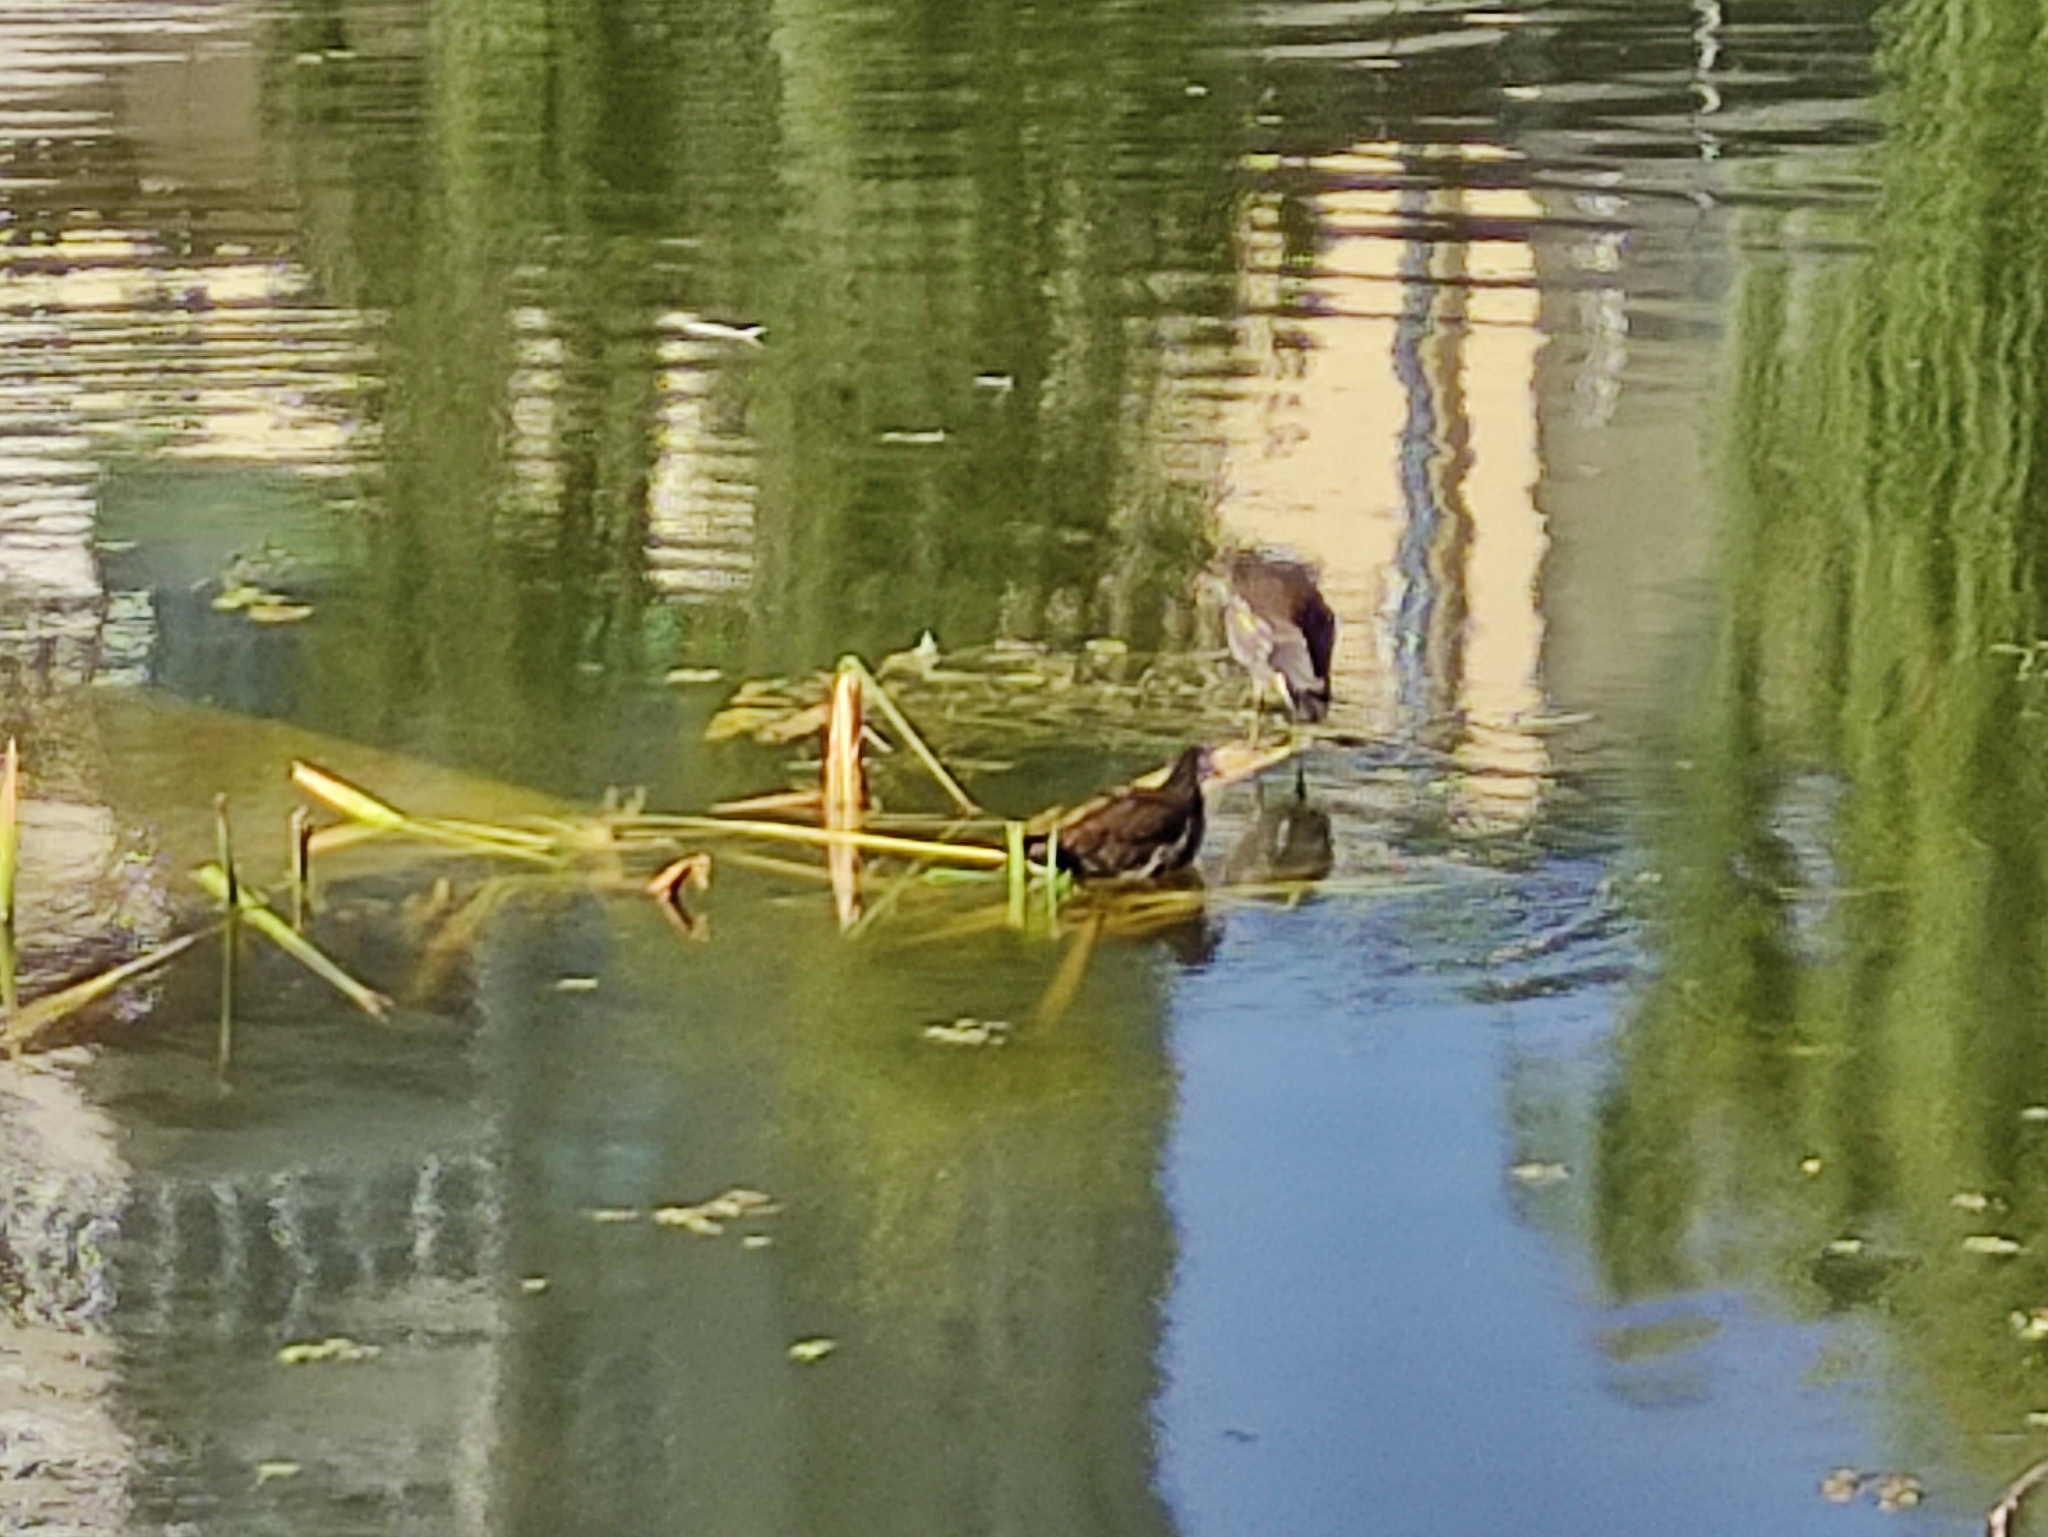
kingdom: Animalia
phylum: Chordata
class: Aves
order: Gruiformes
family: Rallidae
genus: Gallinula
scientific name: Gallinula chloropus
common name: Common moorhen
